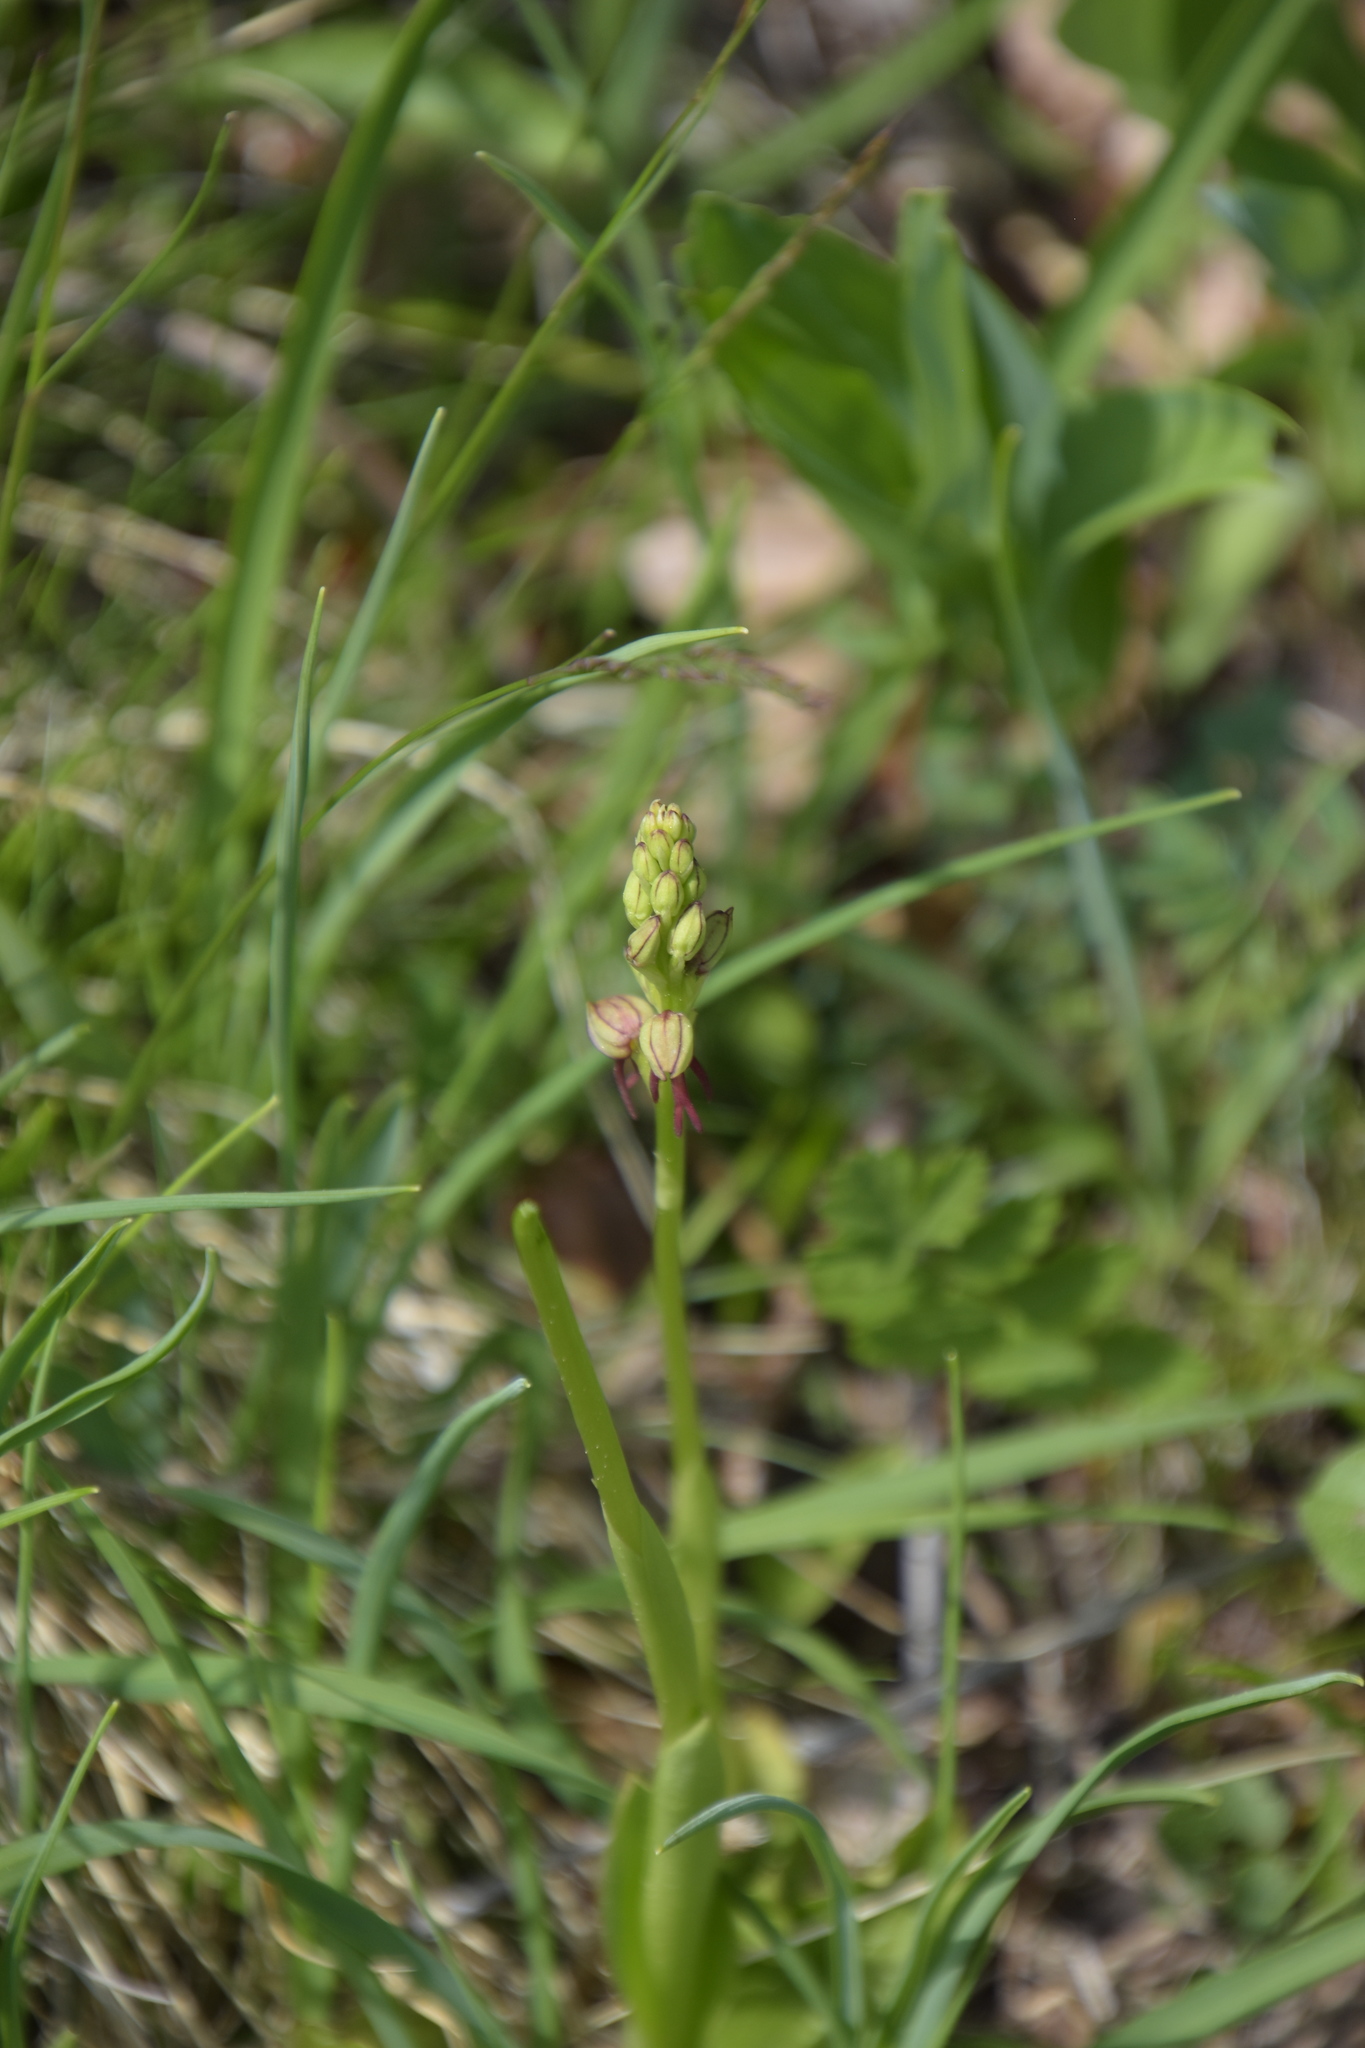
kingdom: Plantae
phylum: Tracheophyta
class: Liliopsida
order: Asparagales
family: Orchidaceae
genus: Orchis
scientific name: Orchis anthropophora
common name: Man orchid
